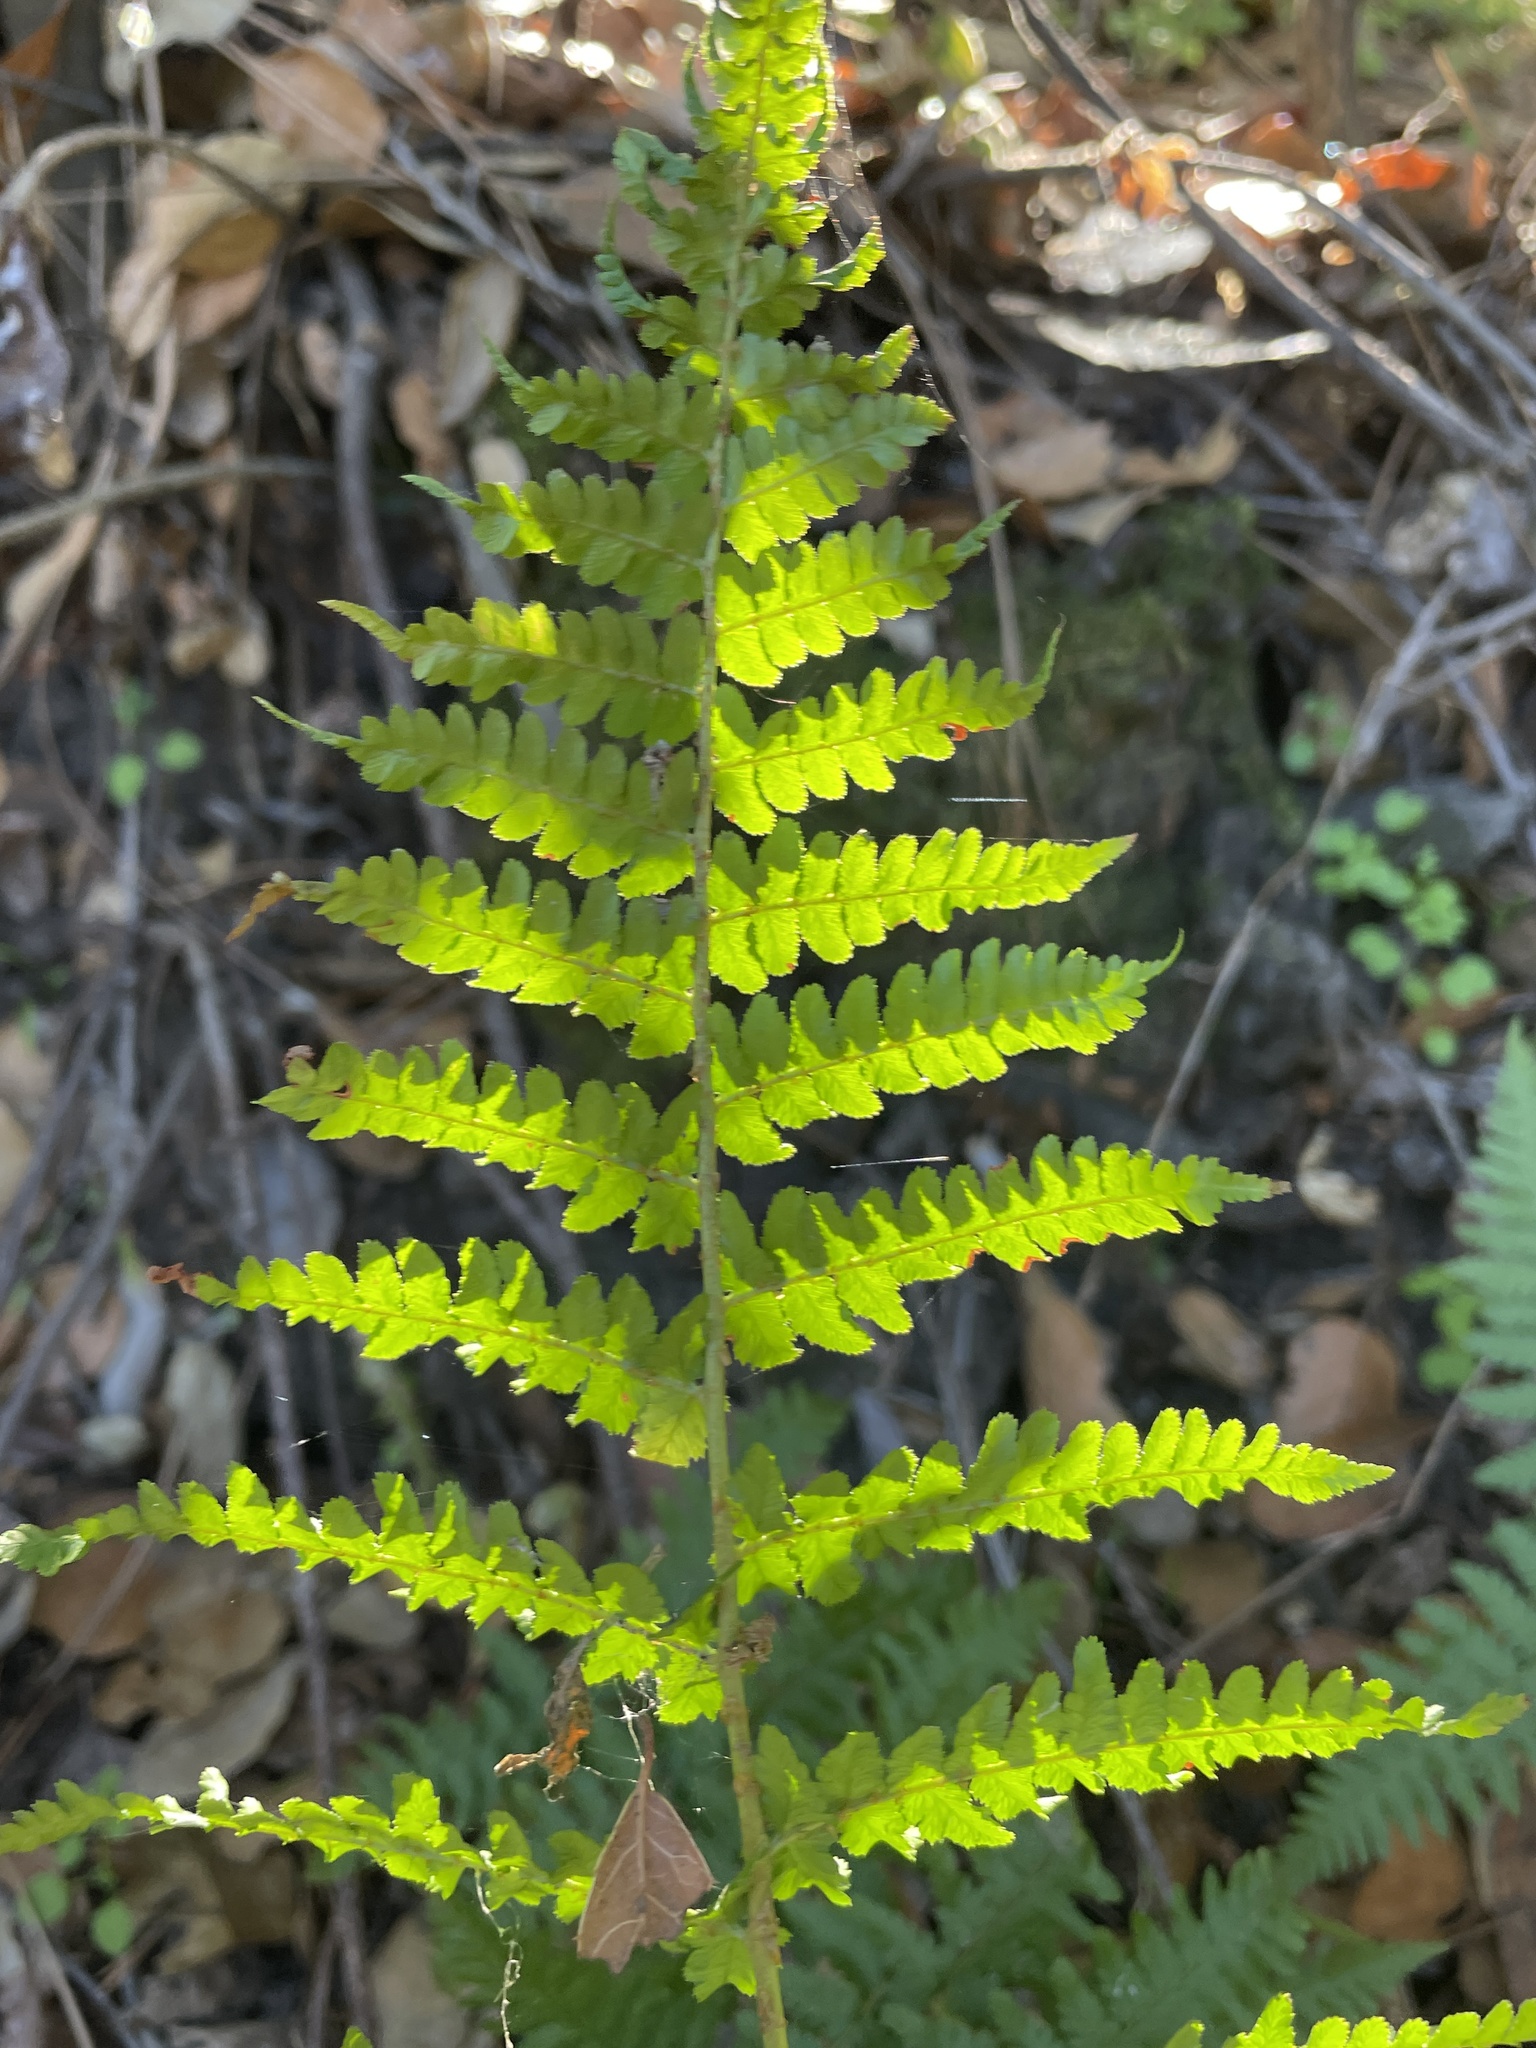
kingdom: Plantae
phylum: Tracheophyta
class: Polypodiopsida
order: Polypodiales
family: Dryopteridaceae
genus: Dryopteris
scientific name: Dryopteris arguta
